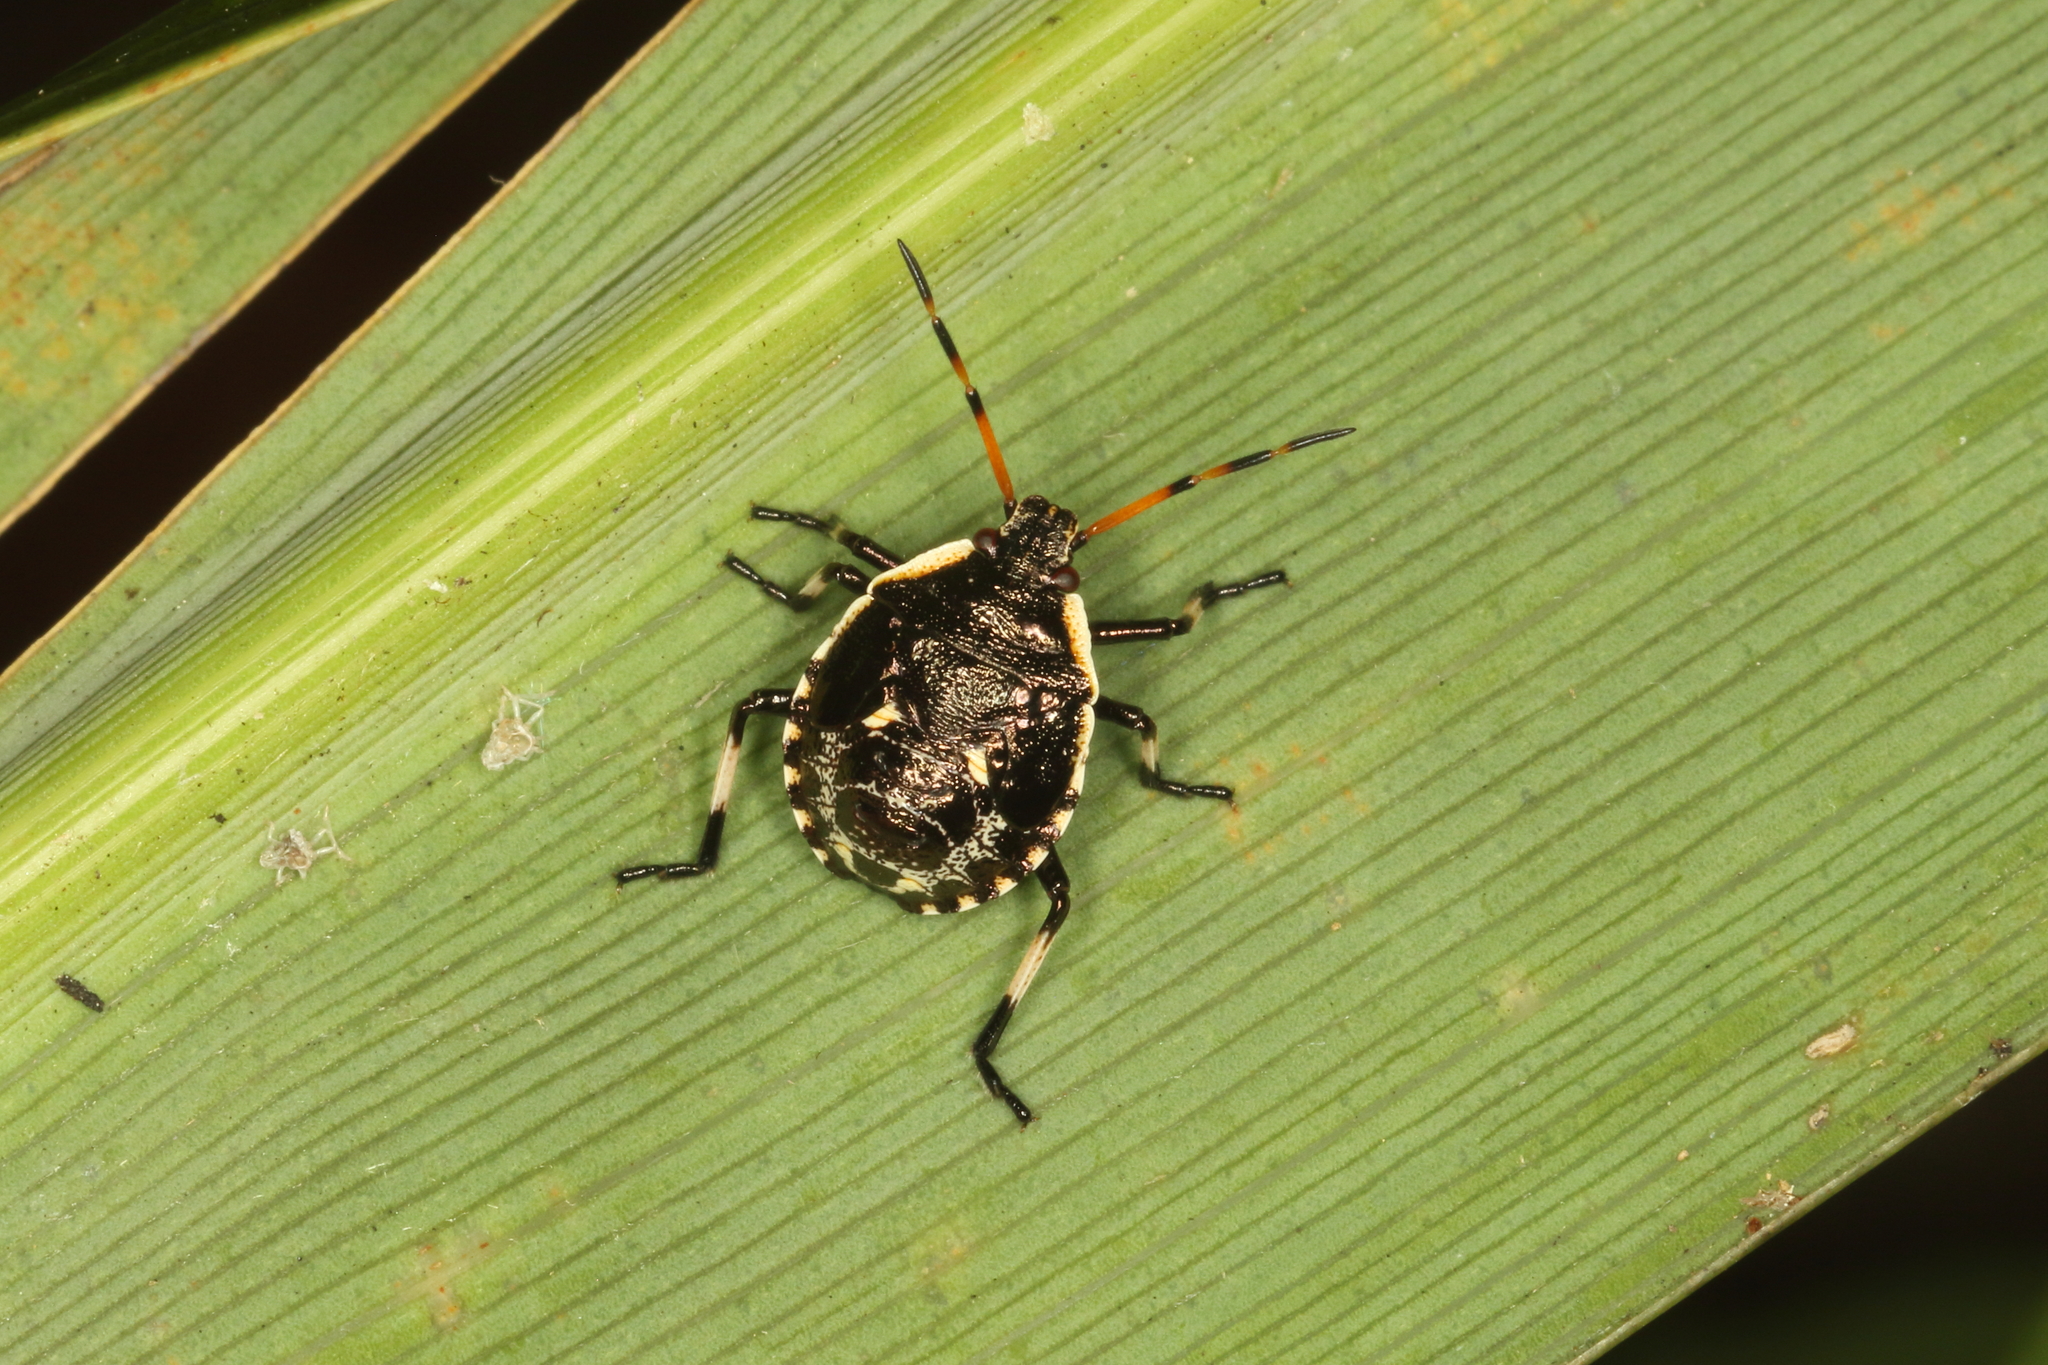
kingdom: Animalia
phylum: Arthropoda
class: Insecta
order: Hemiptera
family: Pentatomidae
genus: Cermatulus
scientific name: Cermatulus nasalis
